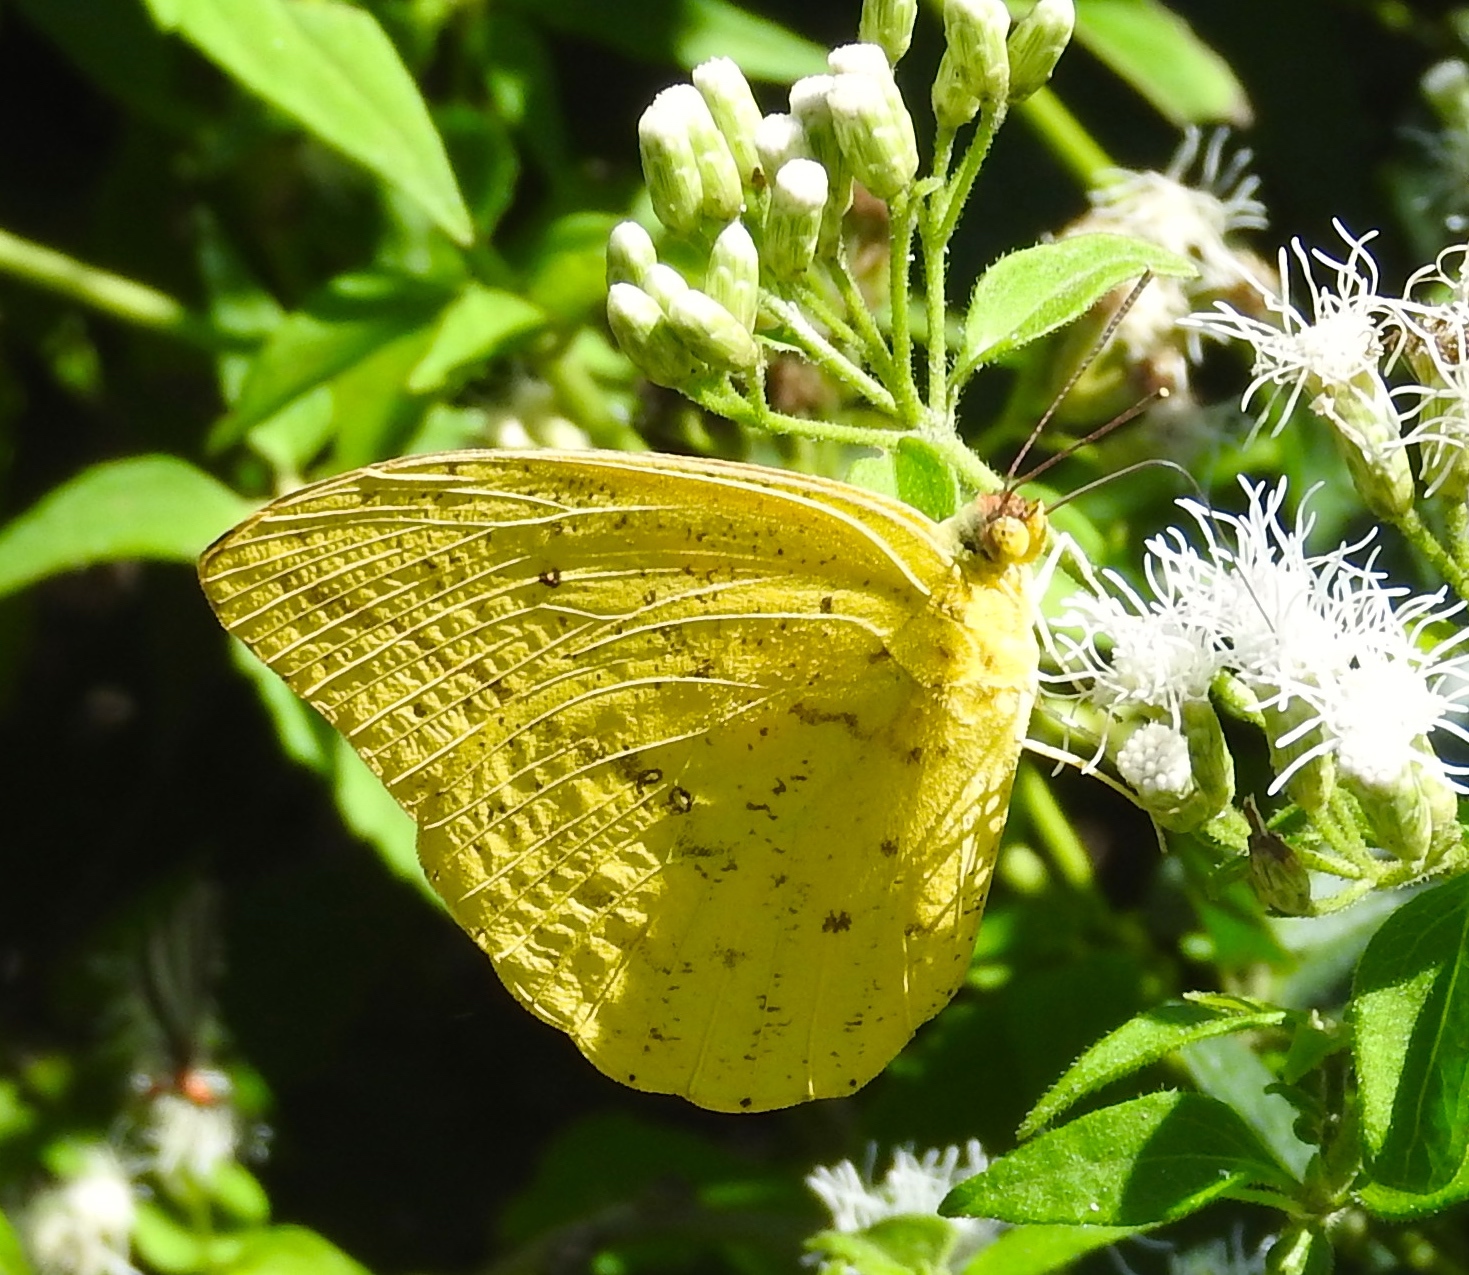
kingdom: Animalia
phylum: Arthropoda
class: Insecta
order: Lepidoptera
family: Pieridae
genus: Phoebis
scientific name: Phoebis agarithe
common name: Large orange sulphur
